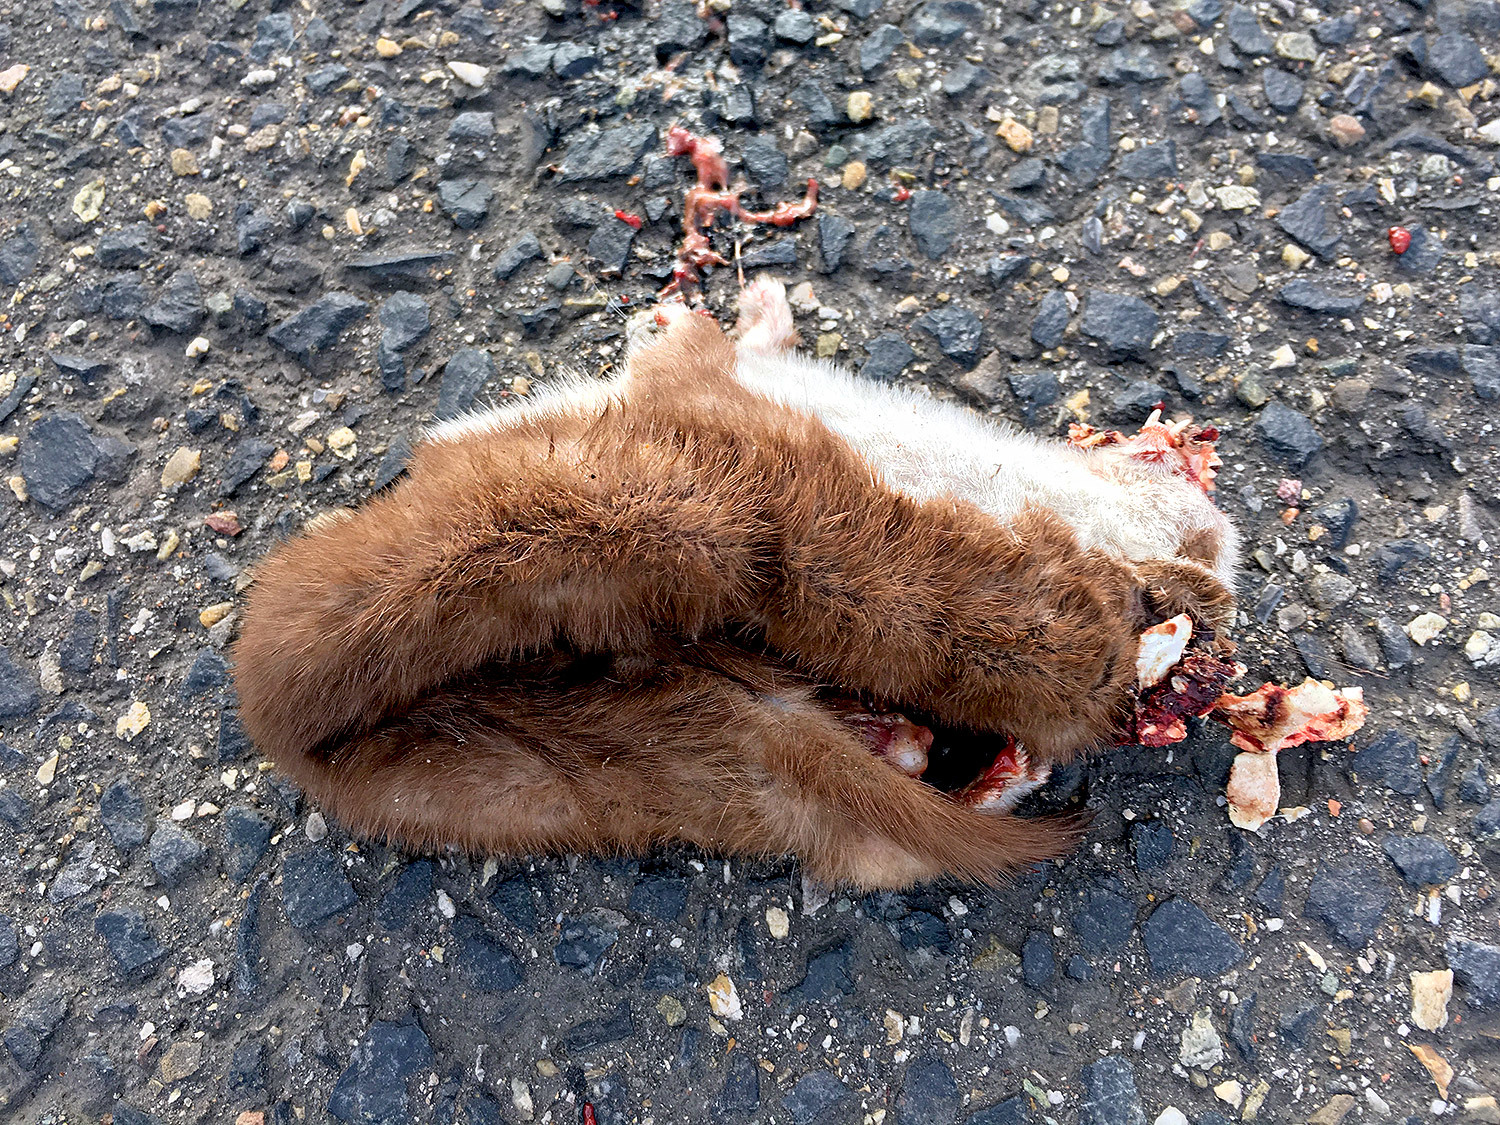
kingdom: Animalia
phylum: Chordata
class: Mammalia
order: Carnivora
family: Mustelidae
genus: Mustela
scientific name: Mustela nivalis
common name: Least weasel
